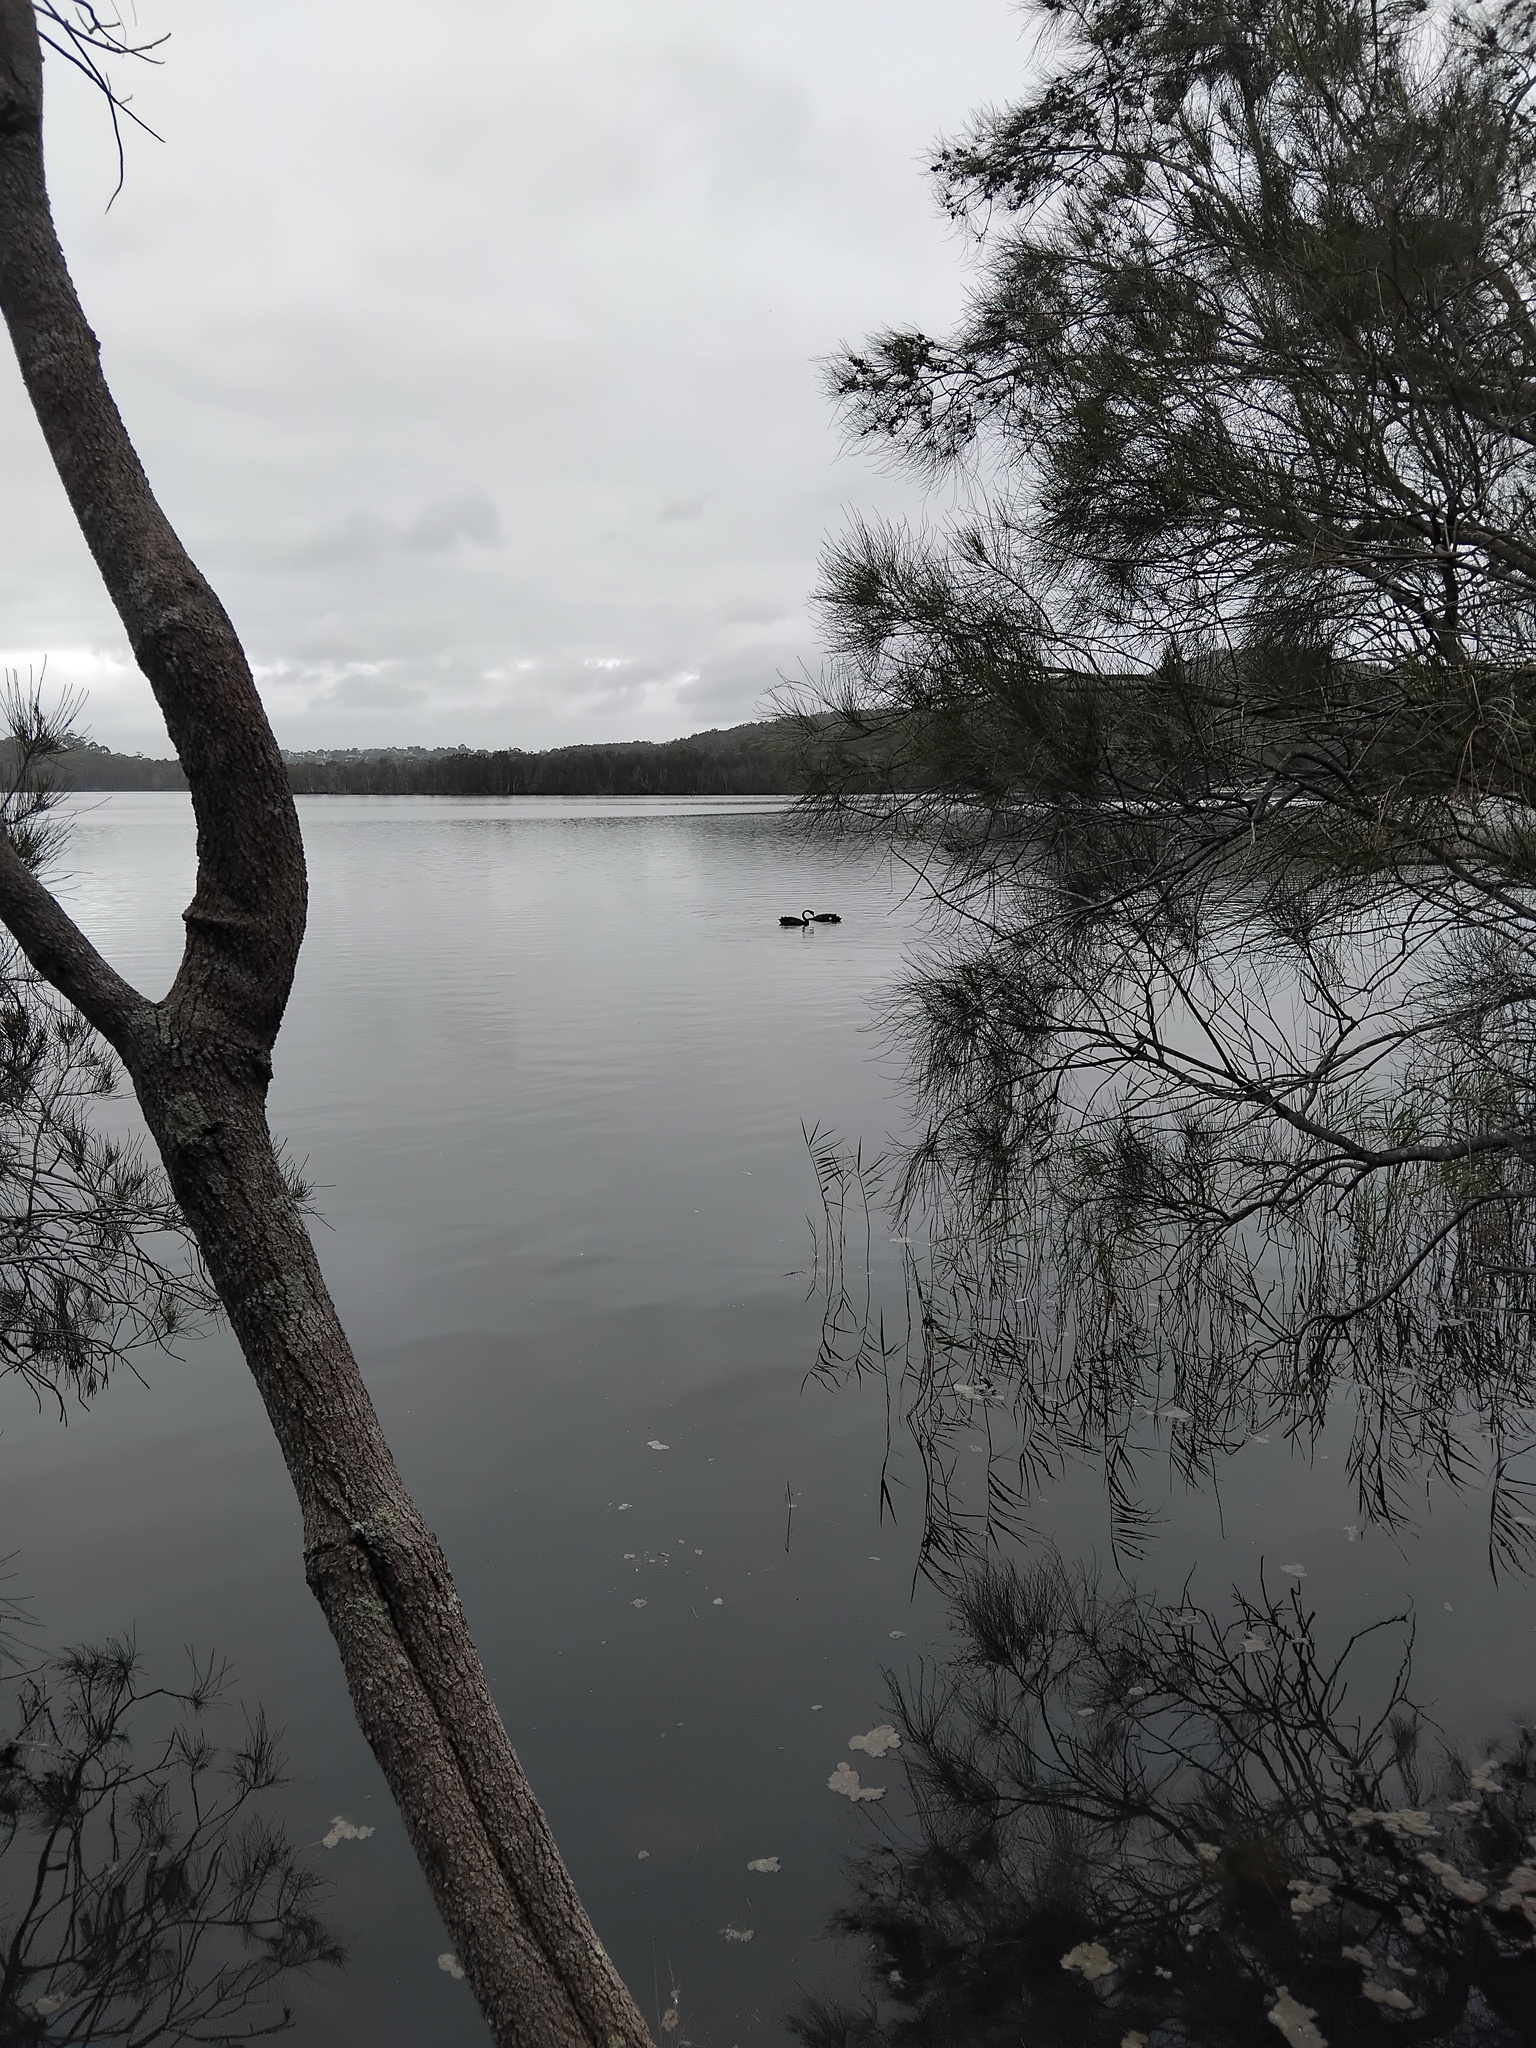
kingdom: Animalia
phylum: Chordata
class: Aves
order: Anseriformes
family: Anatidae
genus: Cygnus
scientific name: Cygnus atratus
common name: Black swan
